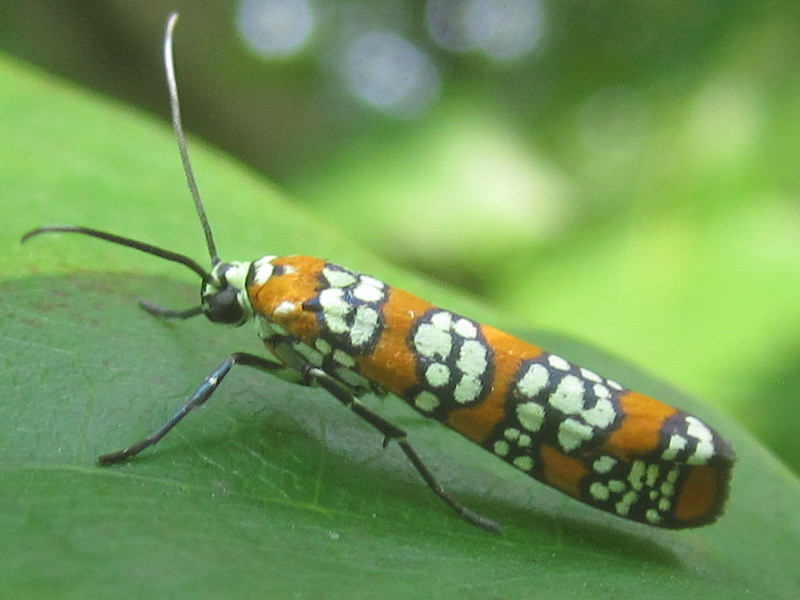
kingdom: Animalia
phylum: Arthropoda
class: Insecta
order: Lepidoptera
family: Attevidae
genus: Atteva
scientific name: Atteva punctella
